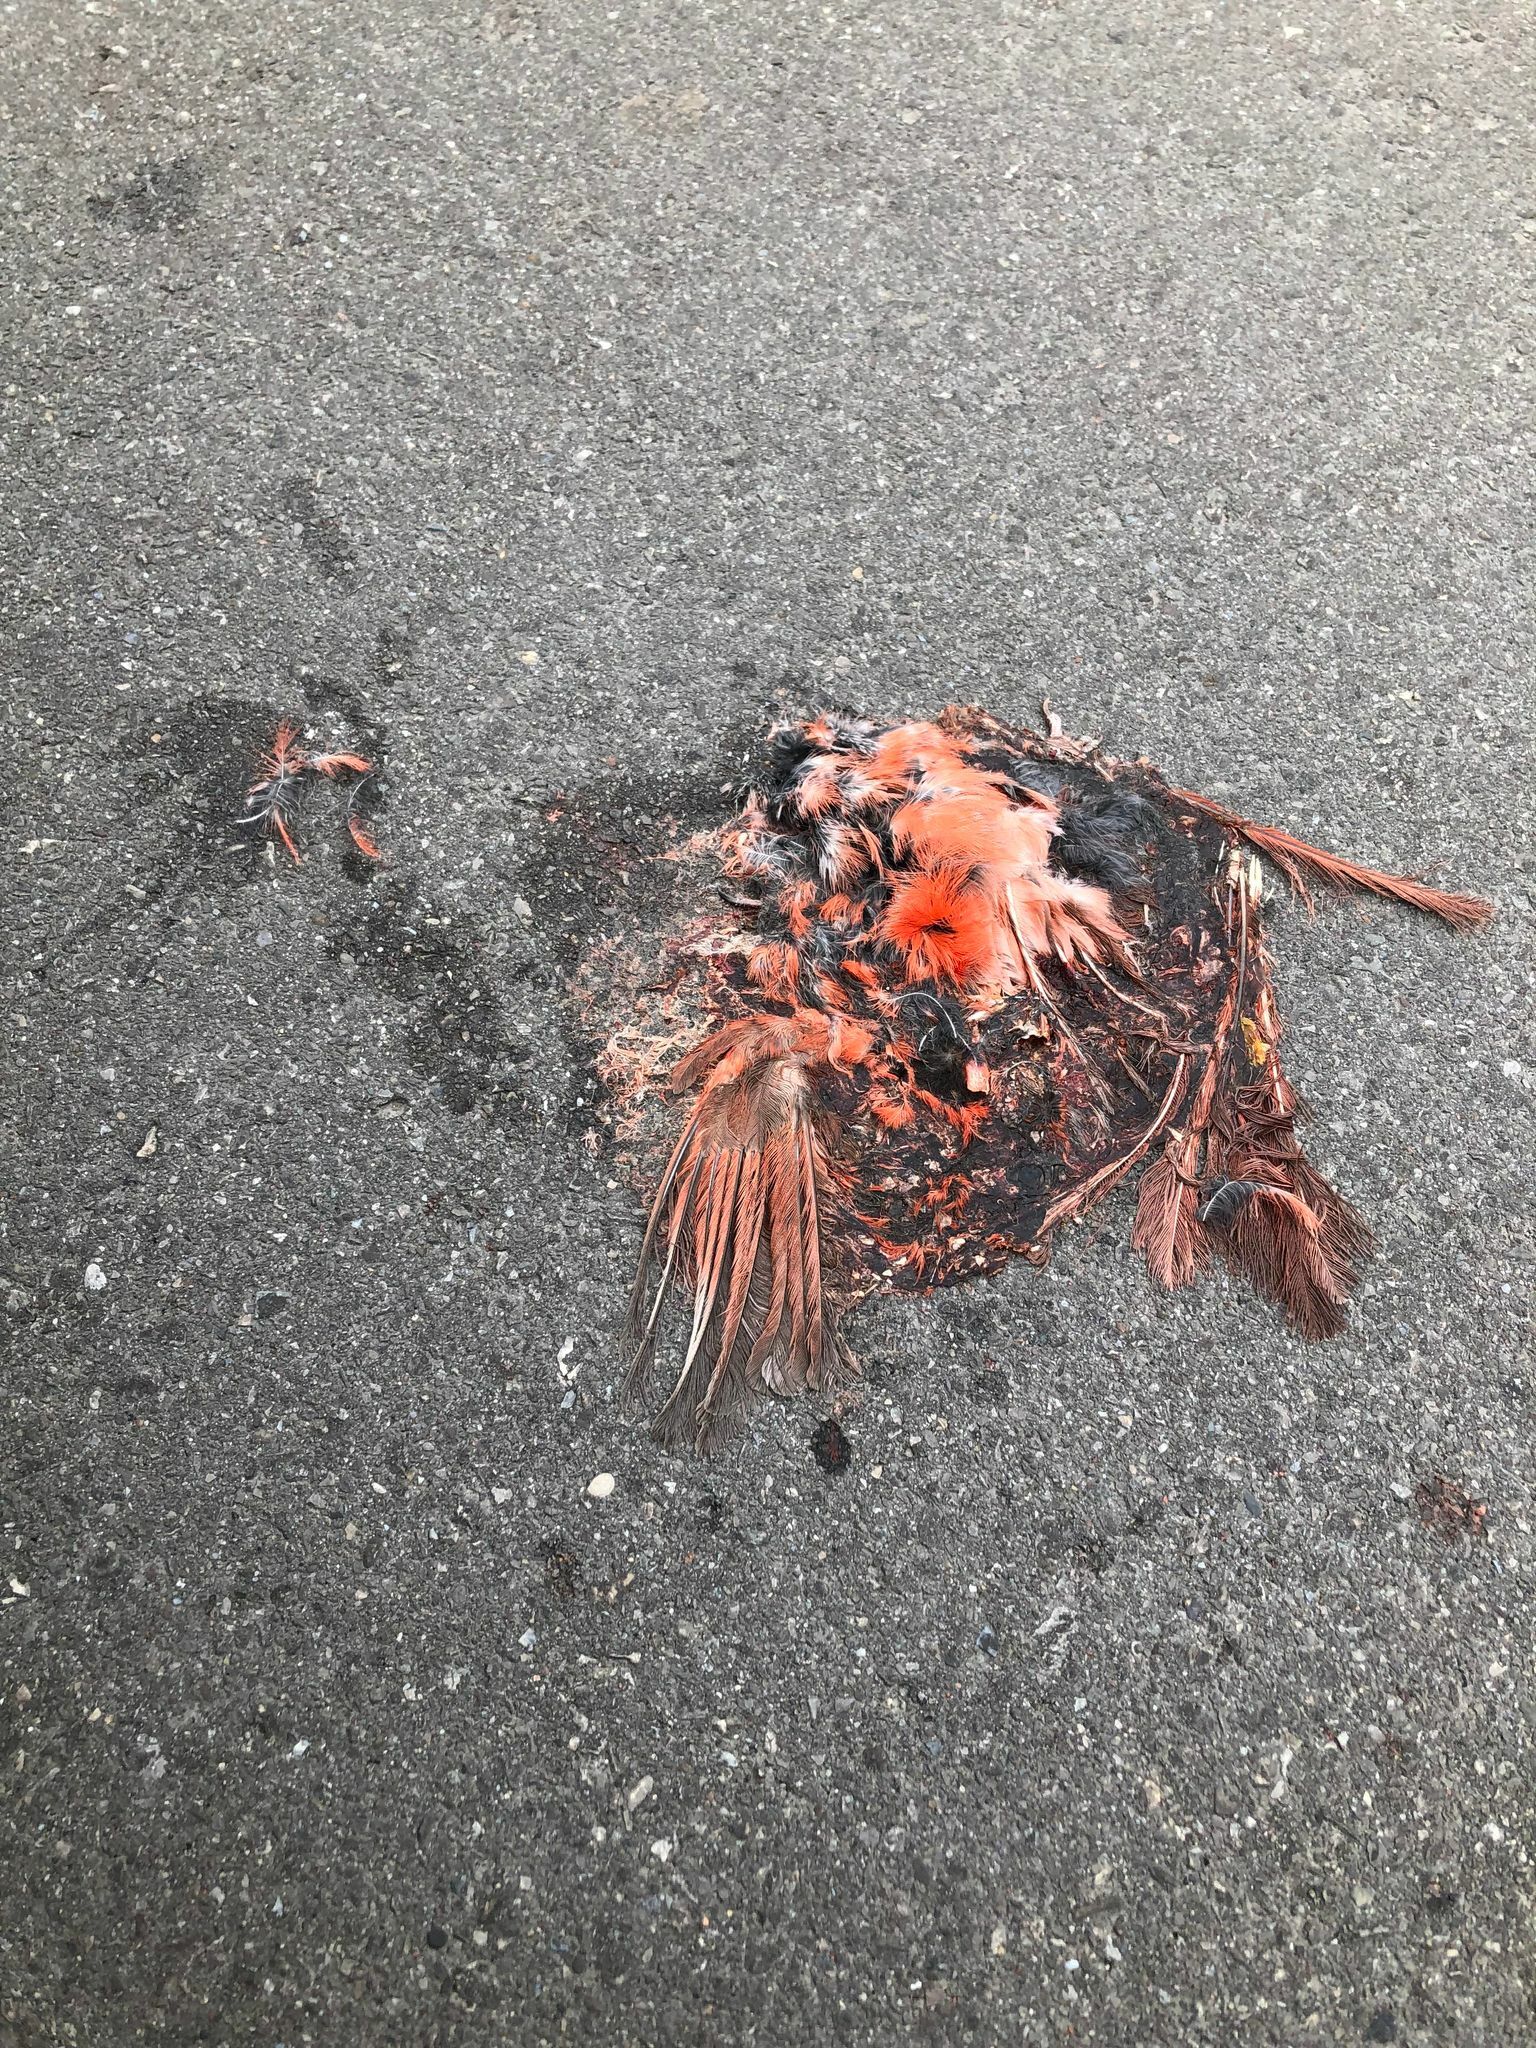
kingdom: Animalia
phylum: Chordata
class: Aves
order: Passeriformes
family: Cardinalidae
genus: Cardinalis
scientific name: Cardinalis cardinalis
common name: Northern cardinal
